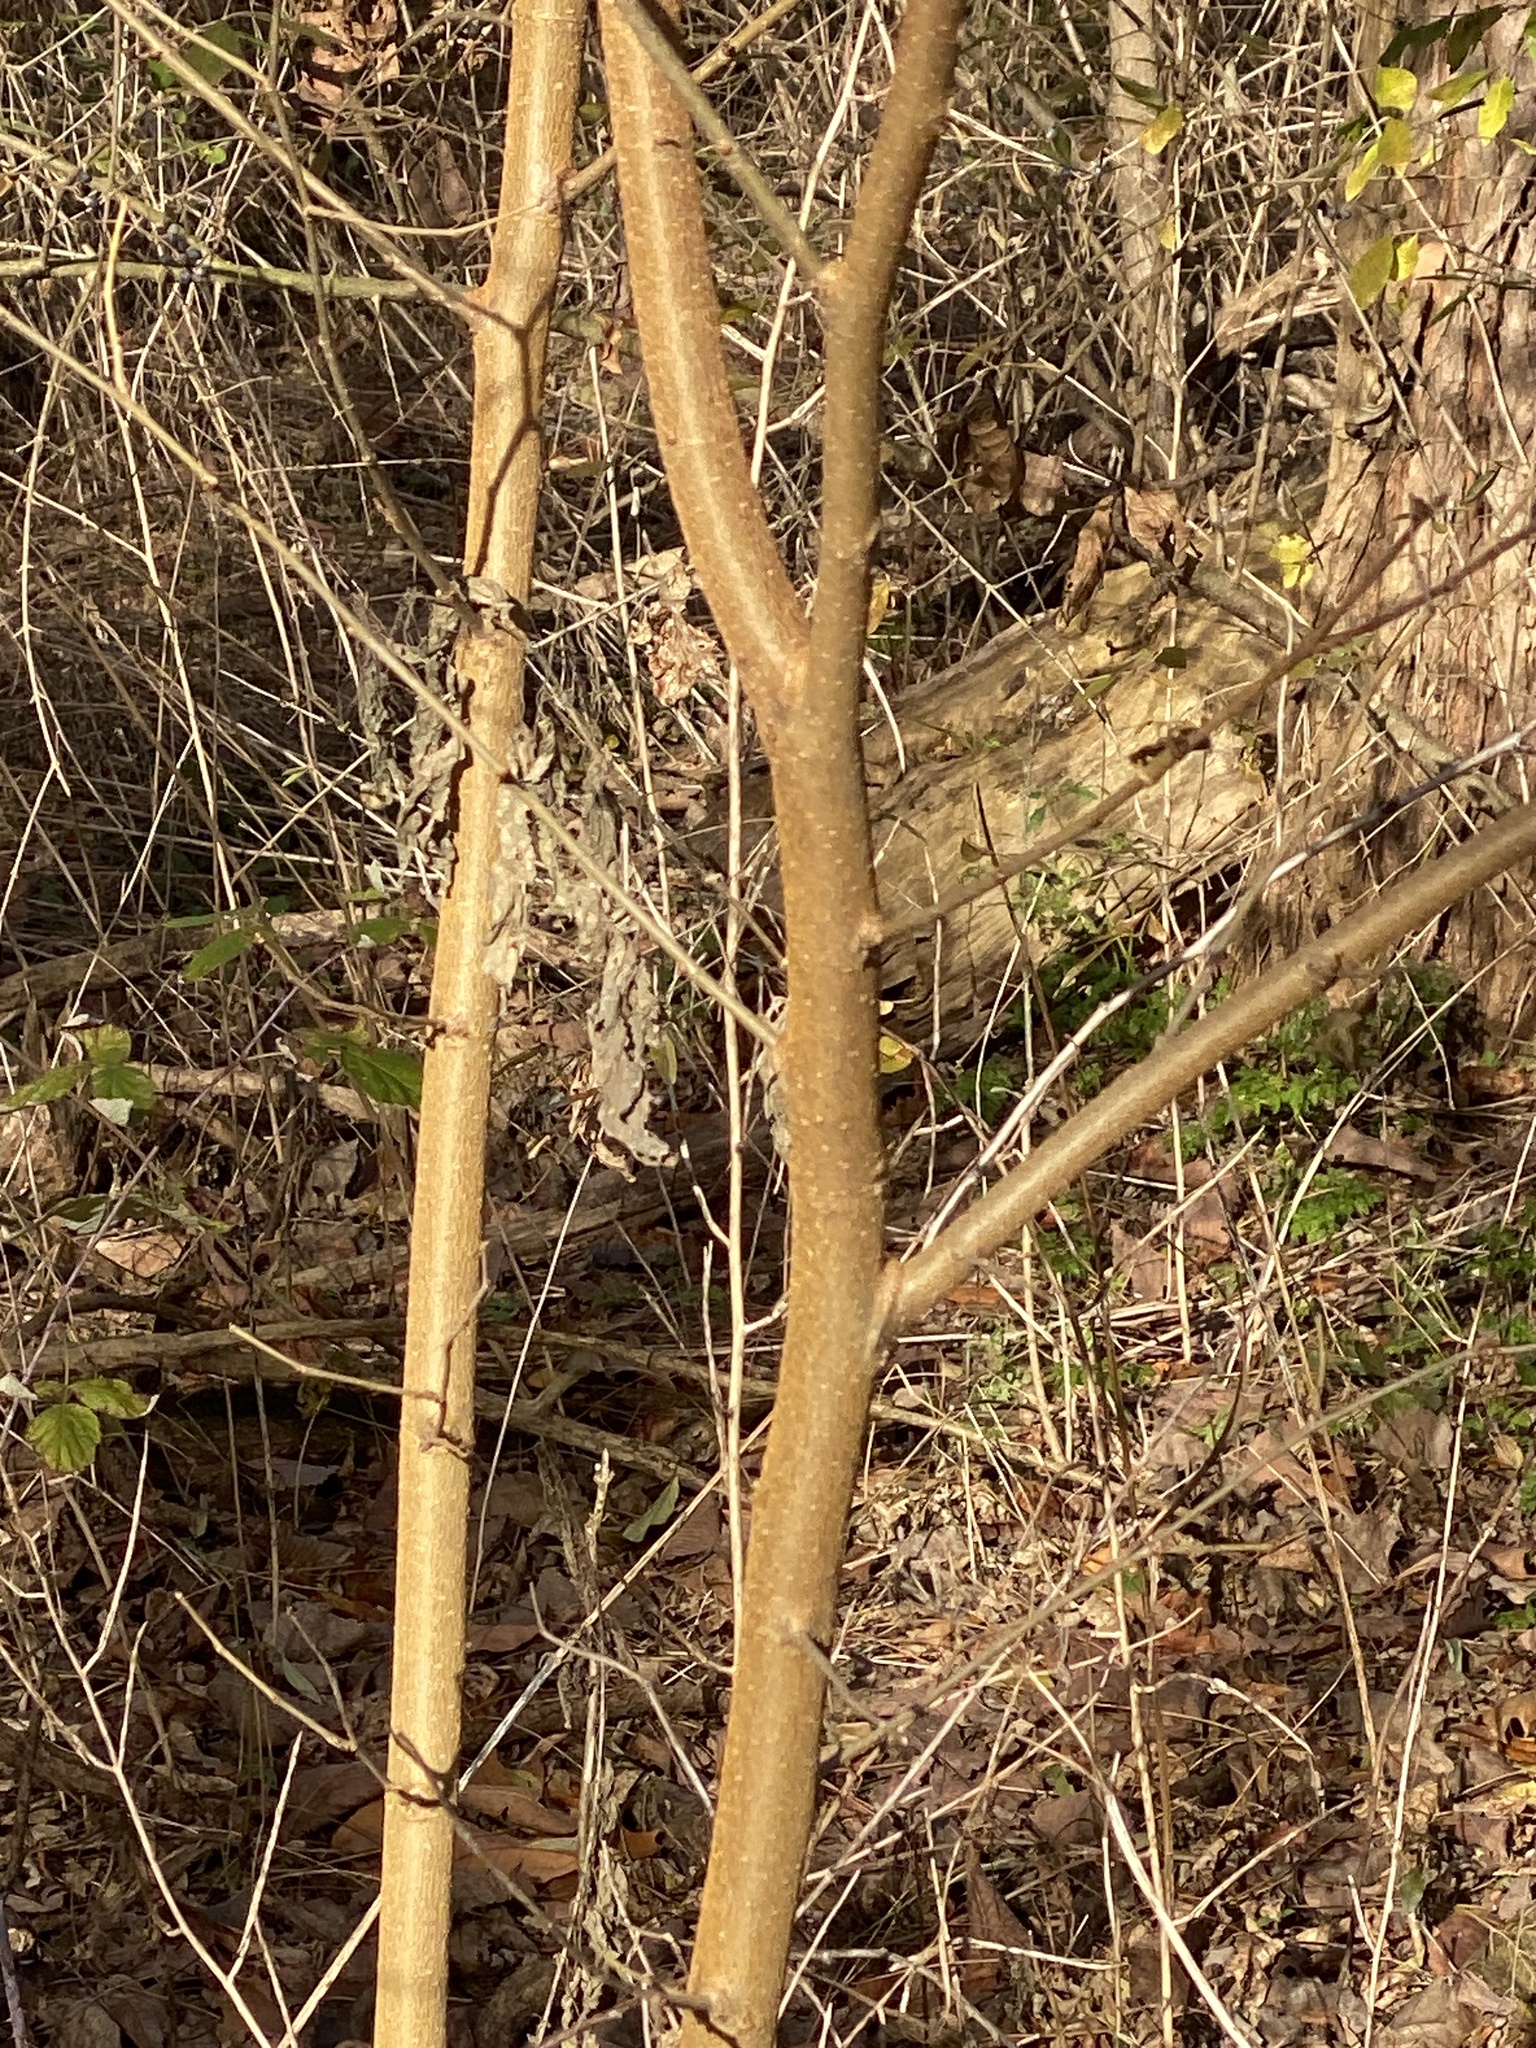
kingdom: Plantae
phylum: Tracheophyta
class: Magnoliopsida
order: Malvales
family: Malvaceae
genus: Tilia
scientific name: Tilia americana
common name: Basswood
